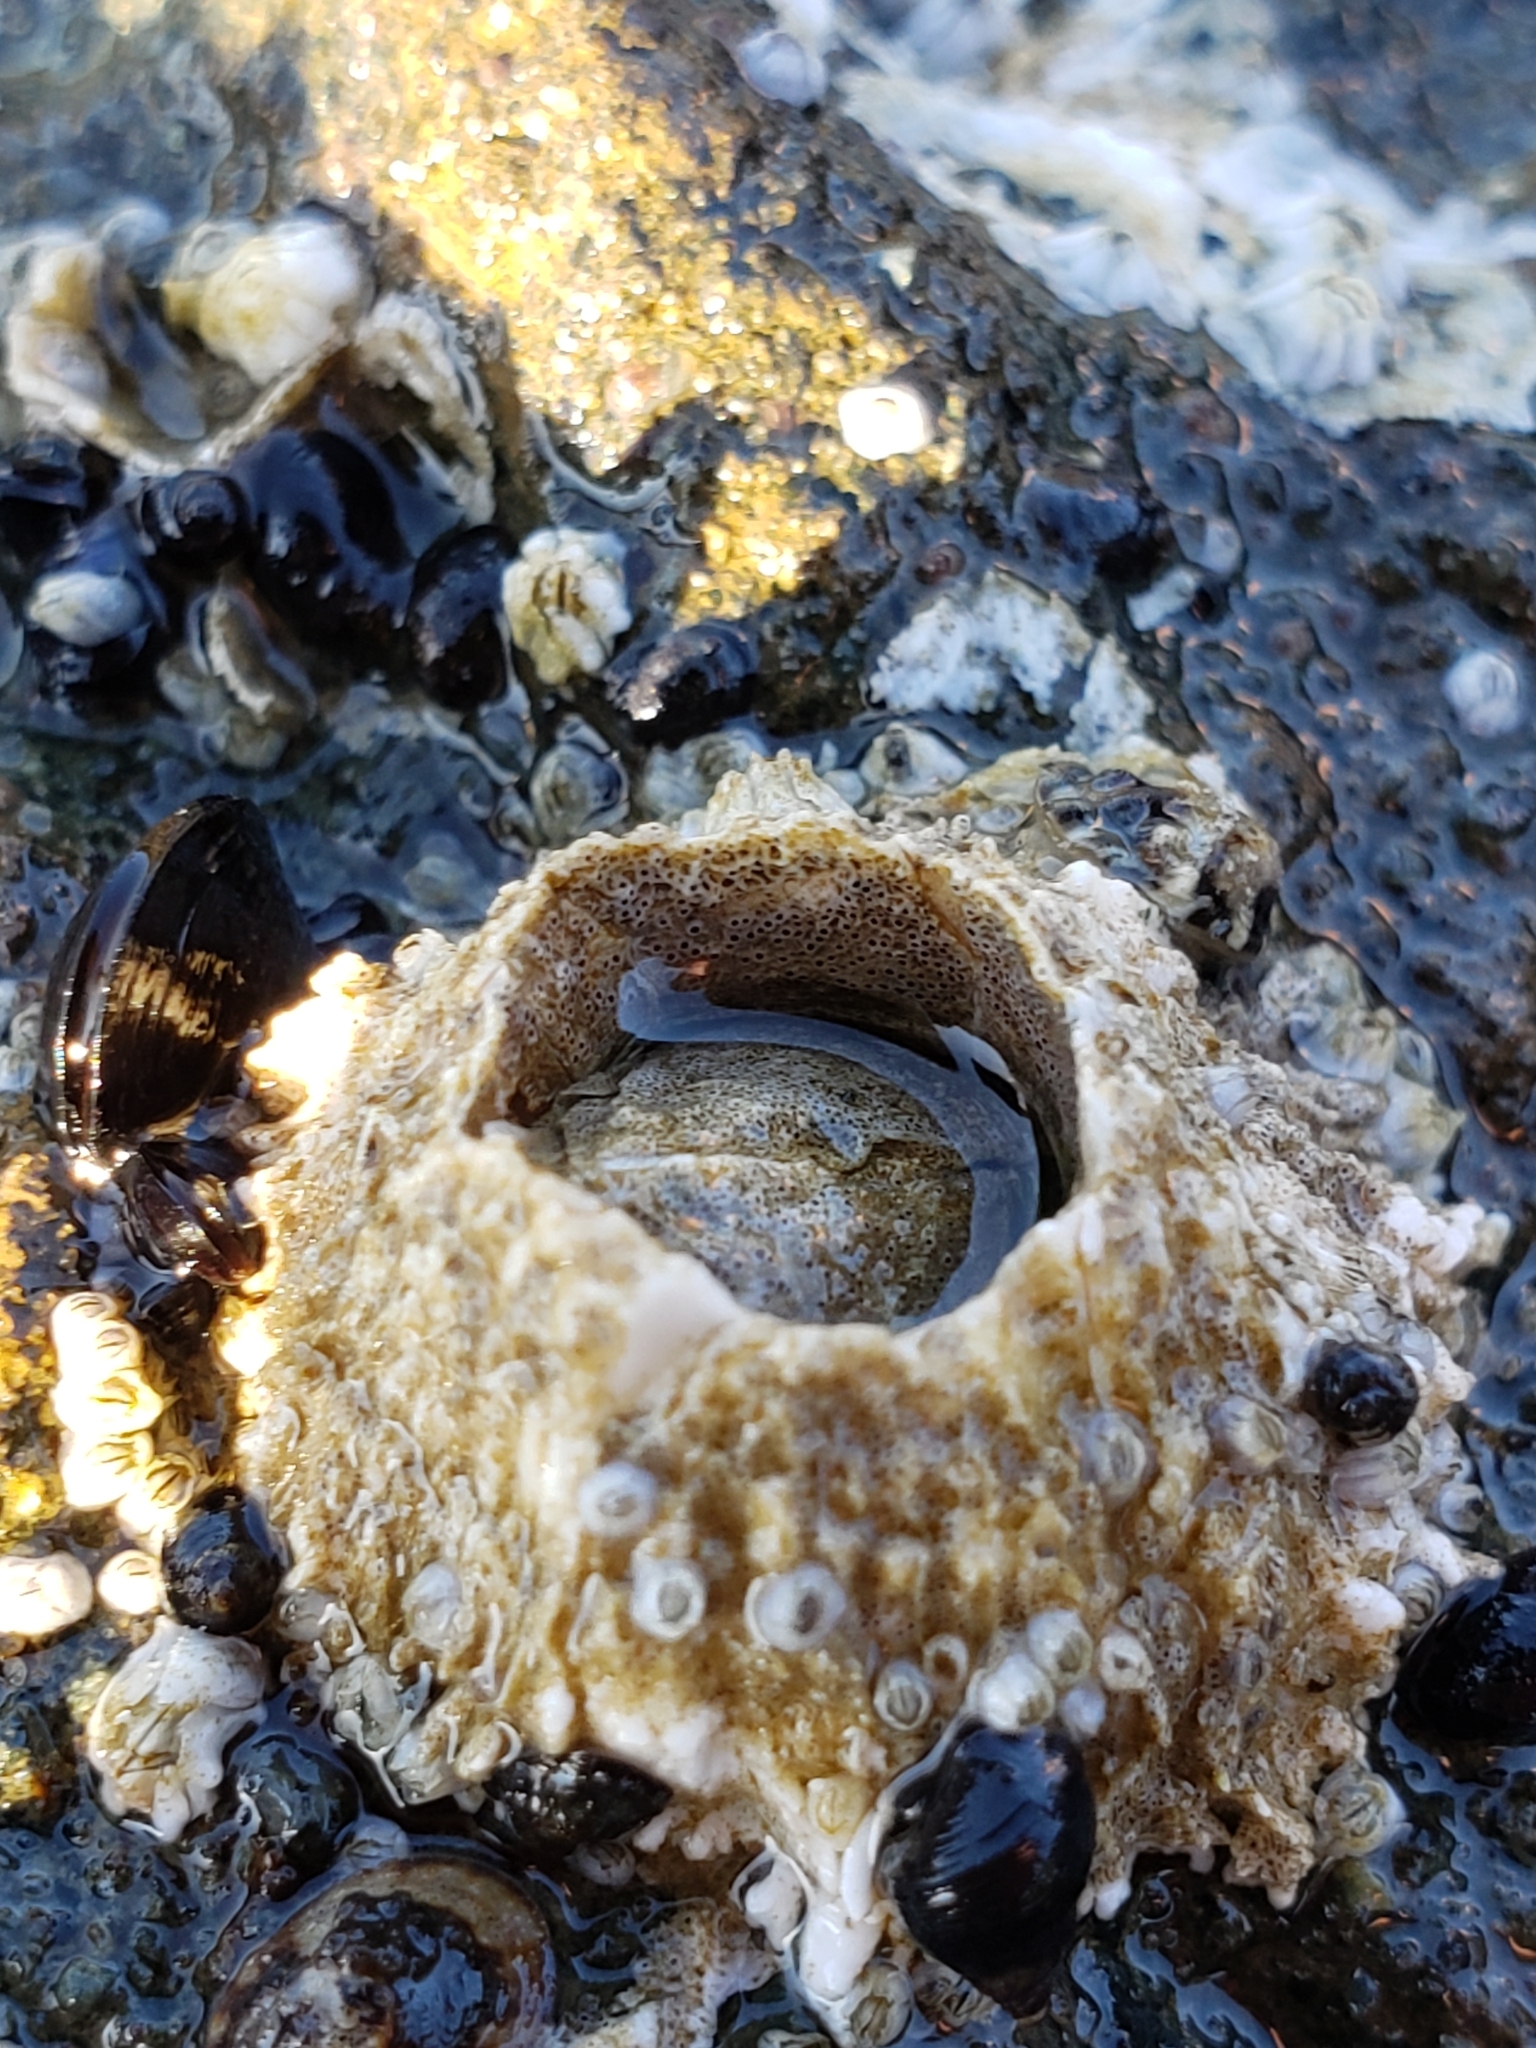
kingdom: Animalia
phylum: Arthropoda
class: Maxillopoda
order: Sessilia
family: Archaeobalanidae
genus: Semibalanus
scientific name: Semibalanus cariosus
